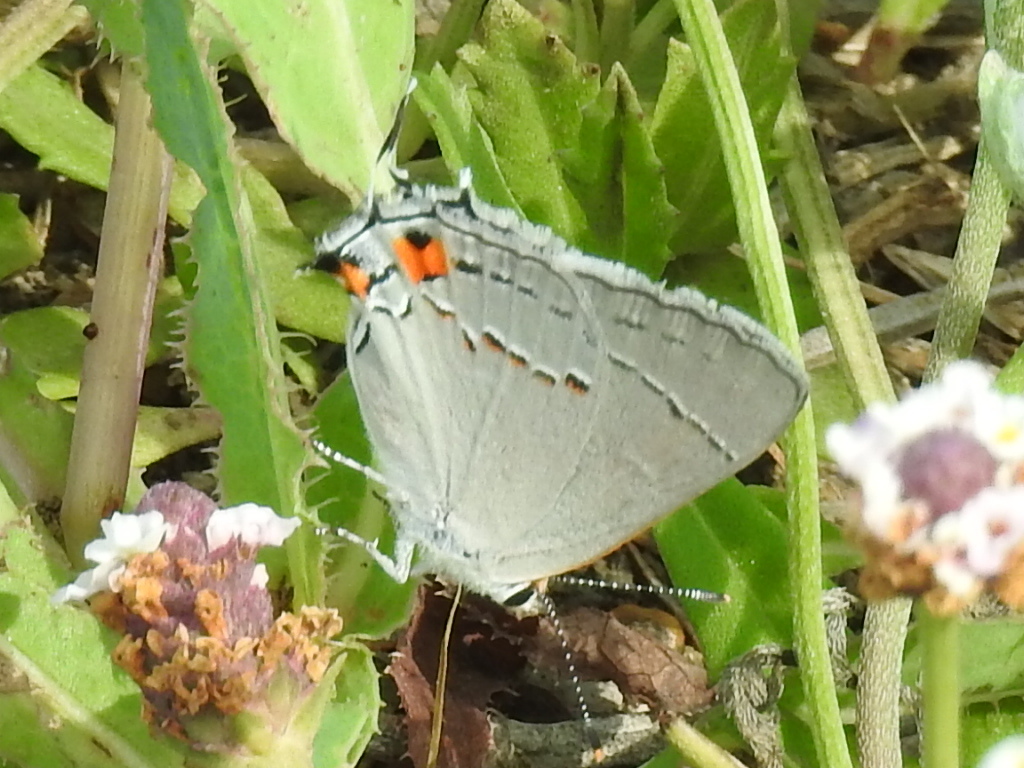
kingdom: Animalia
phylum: Arthropoda
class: Insecta
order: Lepidoptera
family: Lycaenidae
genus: Strymon
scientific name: Strymon melinus
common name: Gray hairstreak
